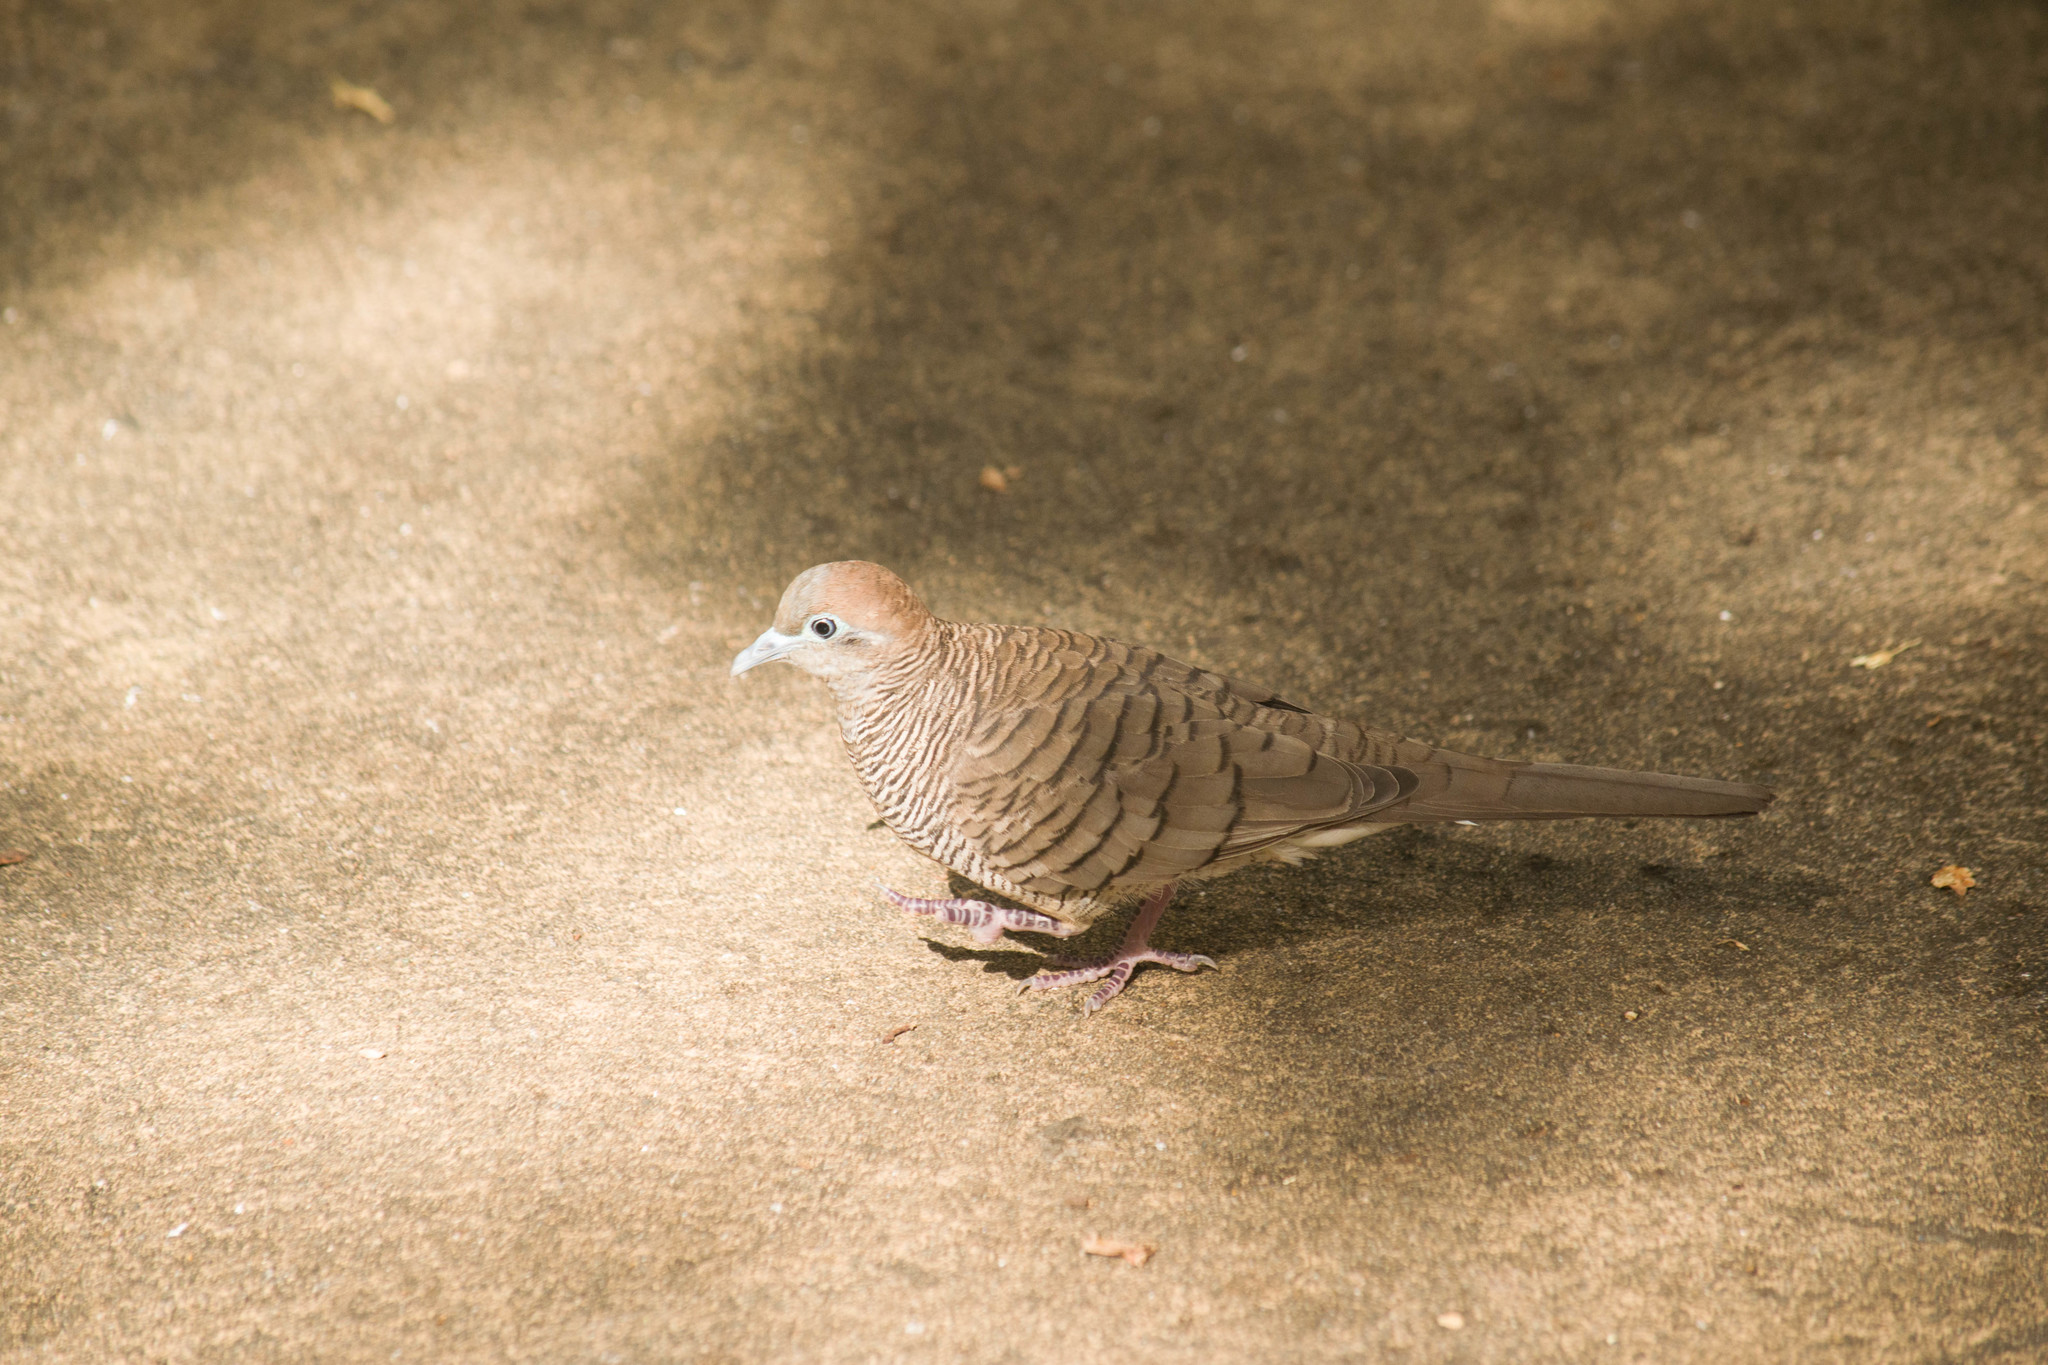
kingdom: Animalia
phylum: Chordata
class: Aves
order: Columbiformes
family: Columbidae
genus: Geopelia
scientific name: Geopelia striata
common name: Zebra dove
